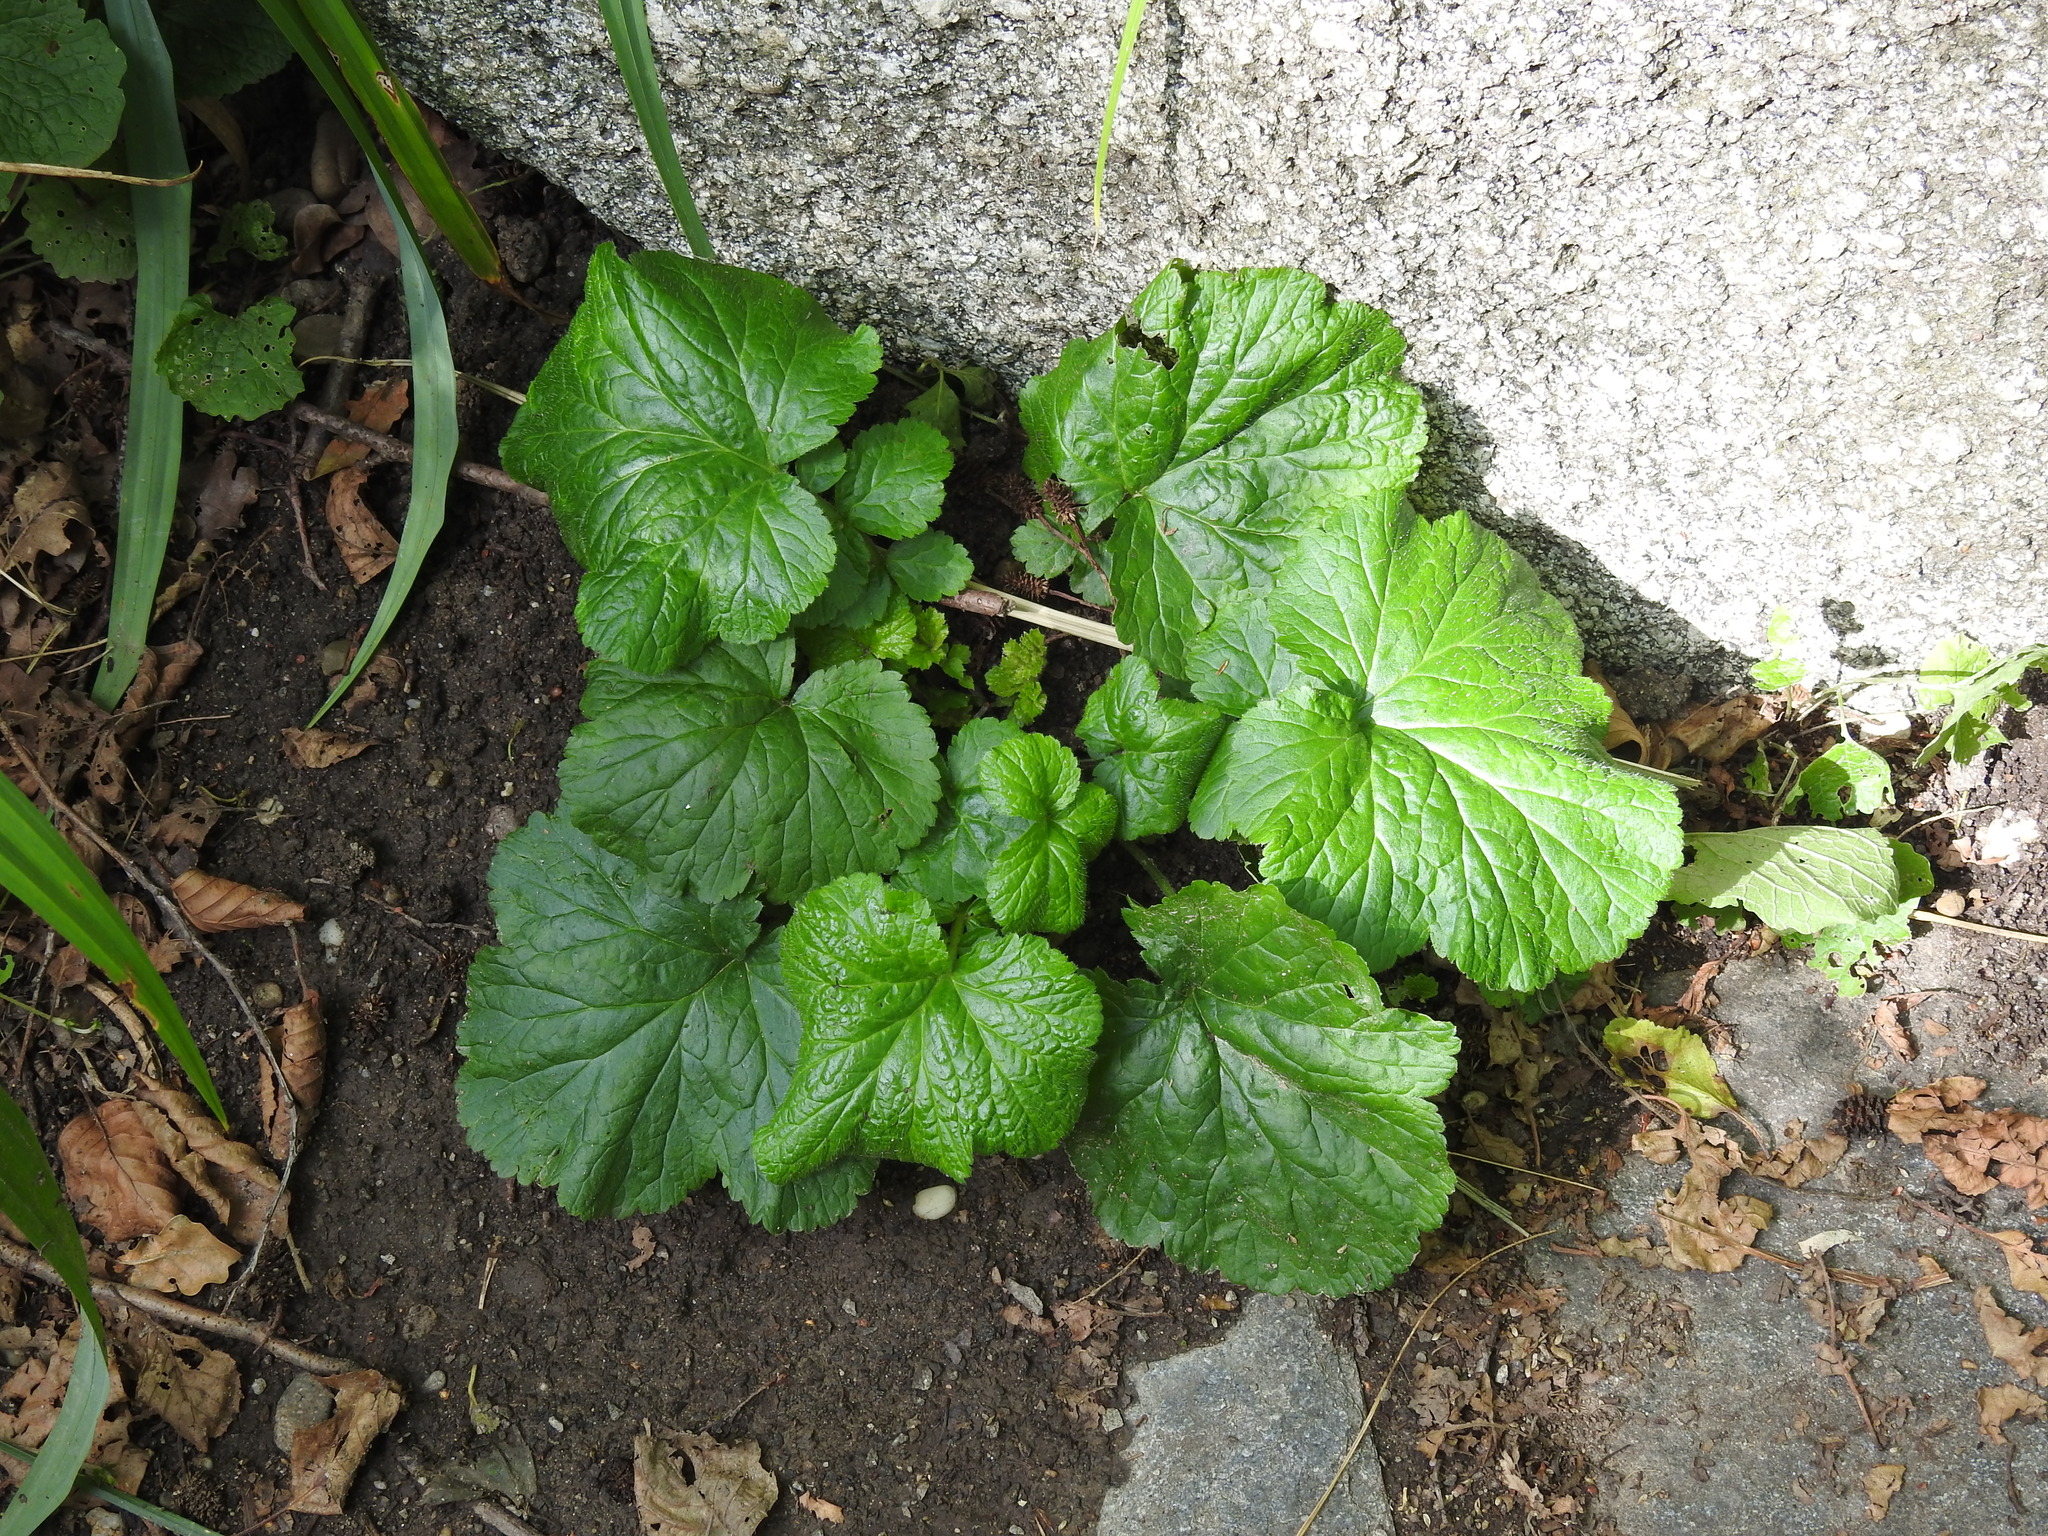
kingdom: Plantae
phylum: Tracheophyta
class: Magnoliopsida
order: Rosales
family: Rosaceae
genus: Geum
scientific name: Geum urbanum
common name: Wood avens
